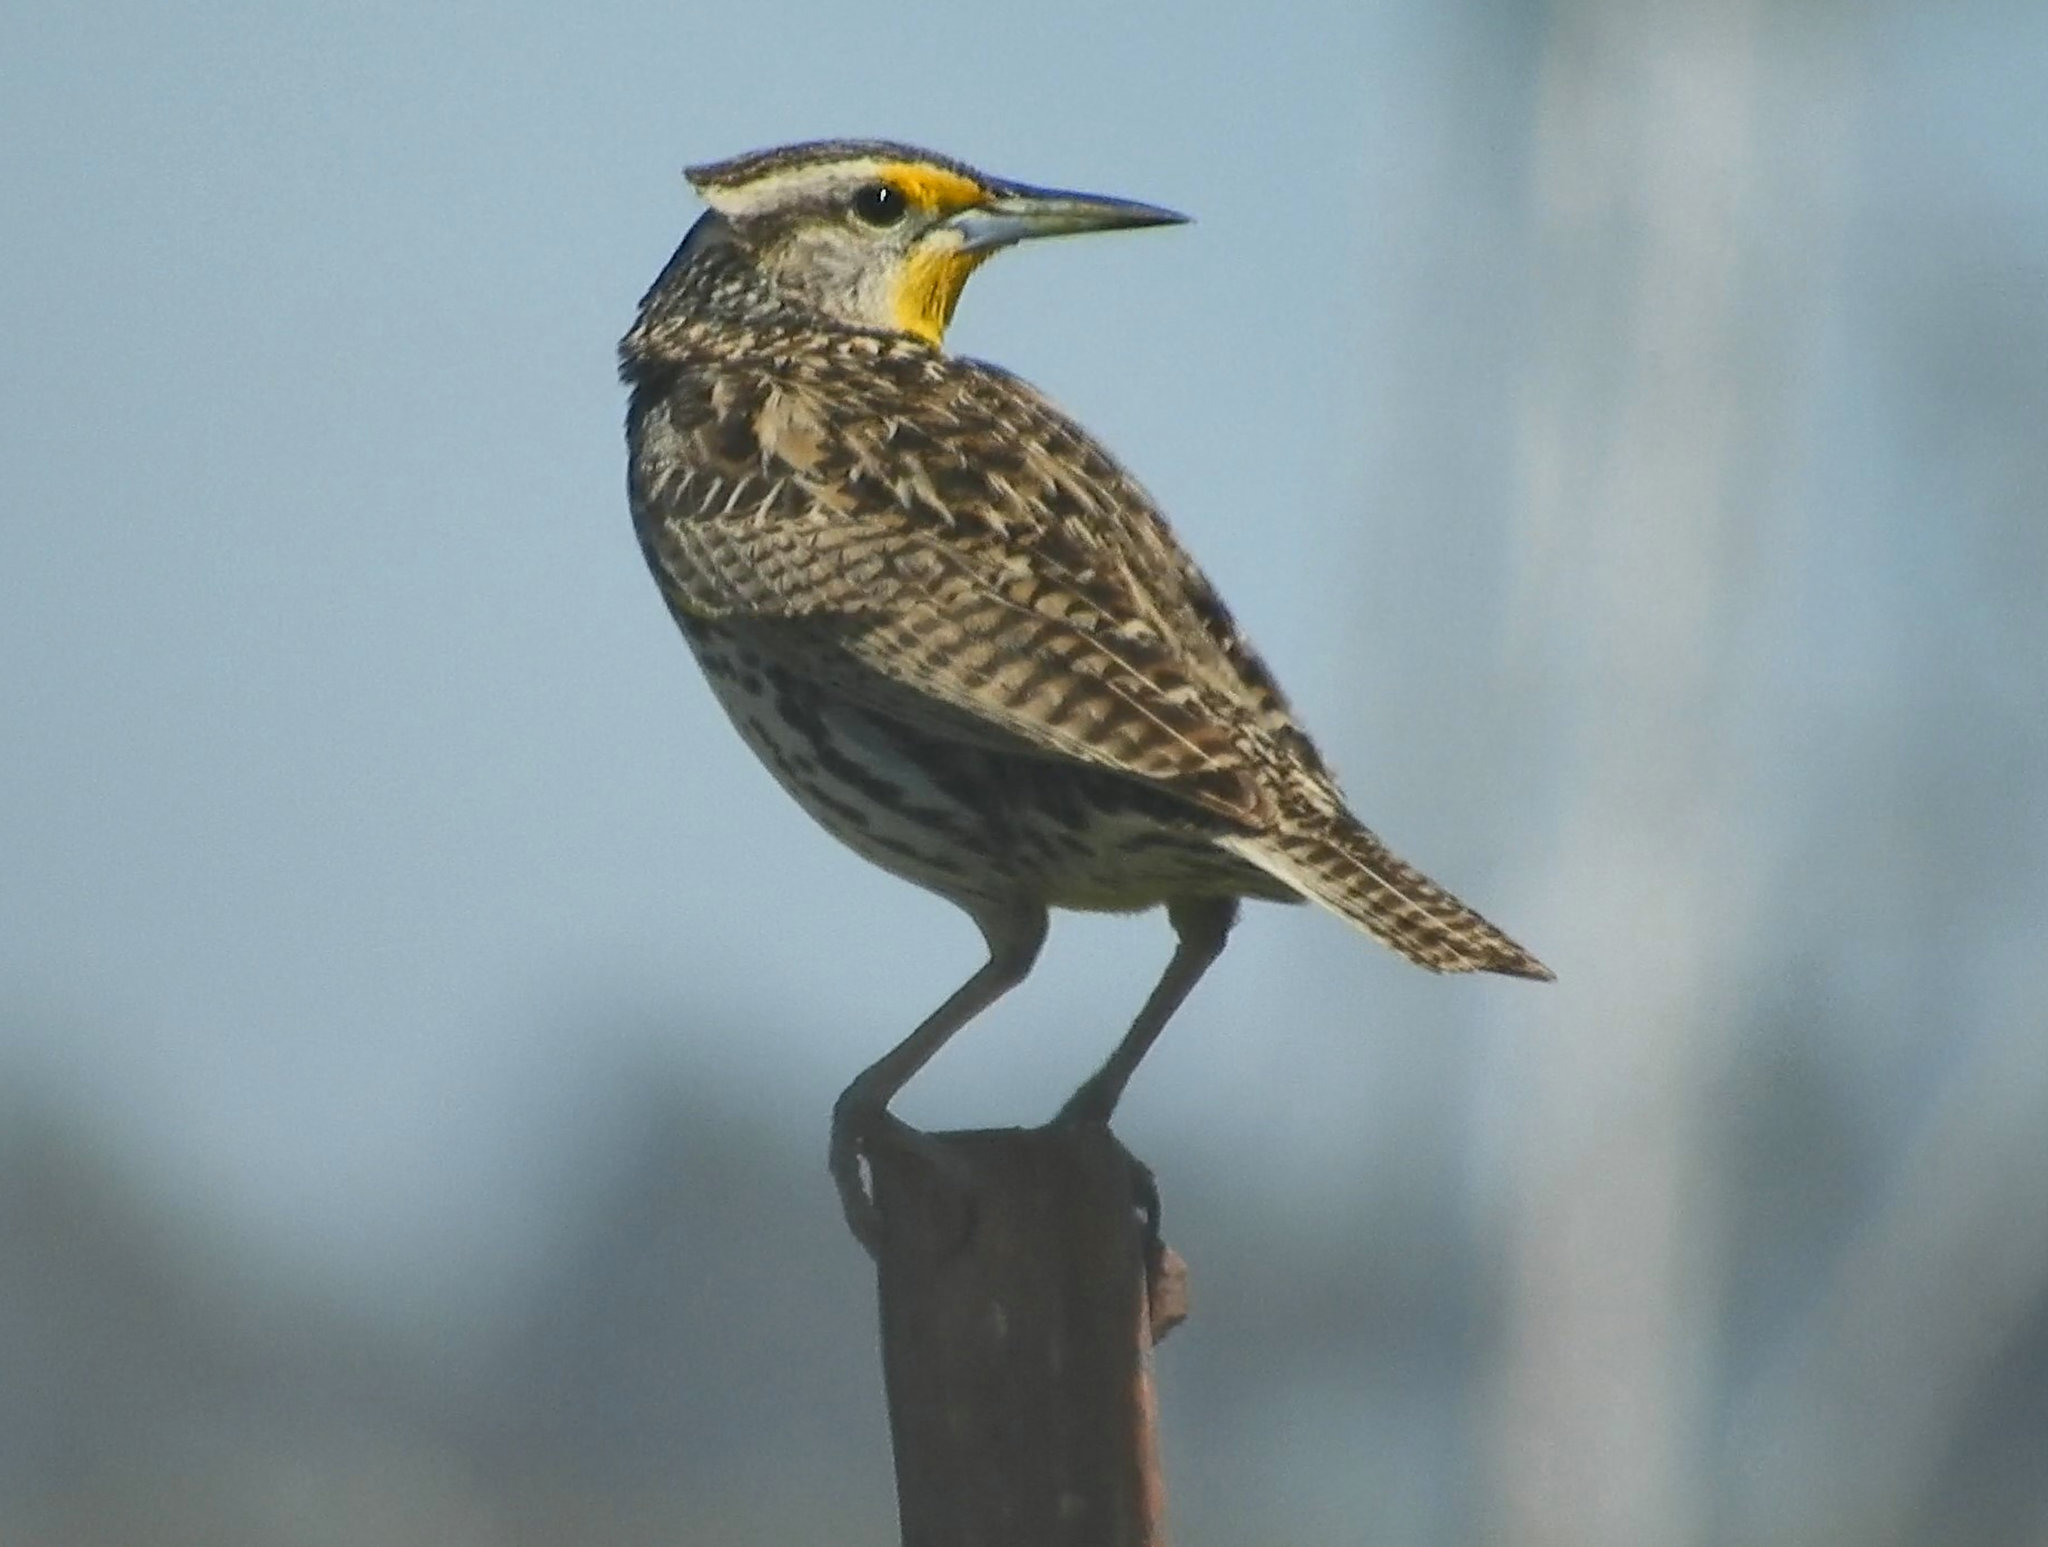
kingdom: Animalia
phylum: Chordata
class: Aves
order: Passeriformes
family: Icteridae
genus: Sturnella
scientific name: Sturnella neglecta
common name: Western meadowlark
